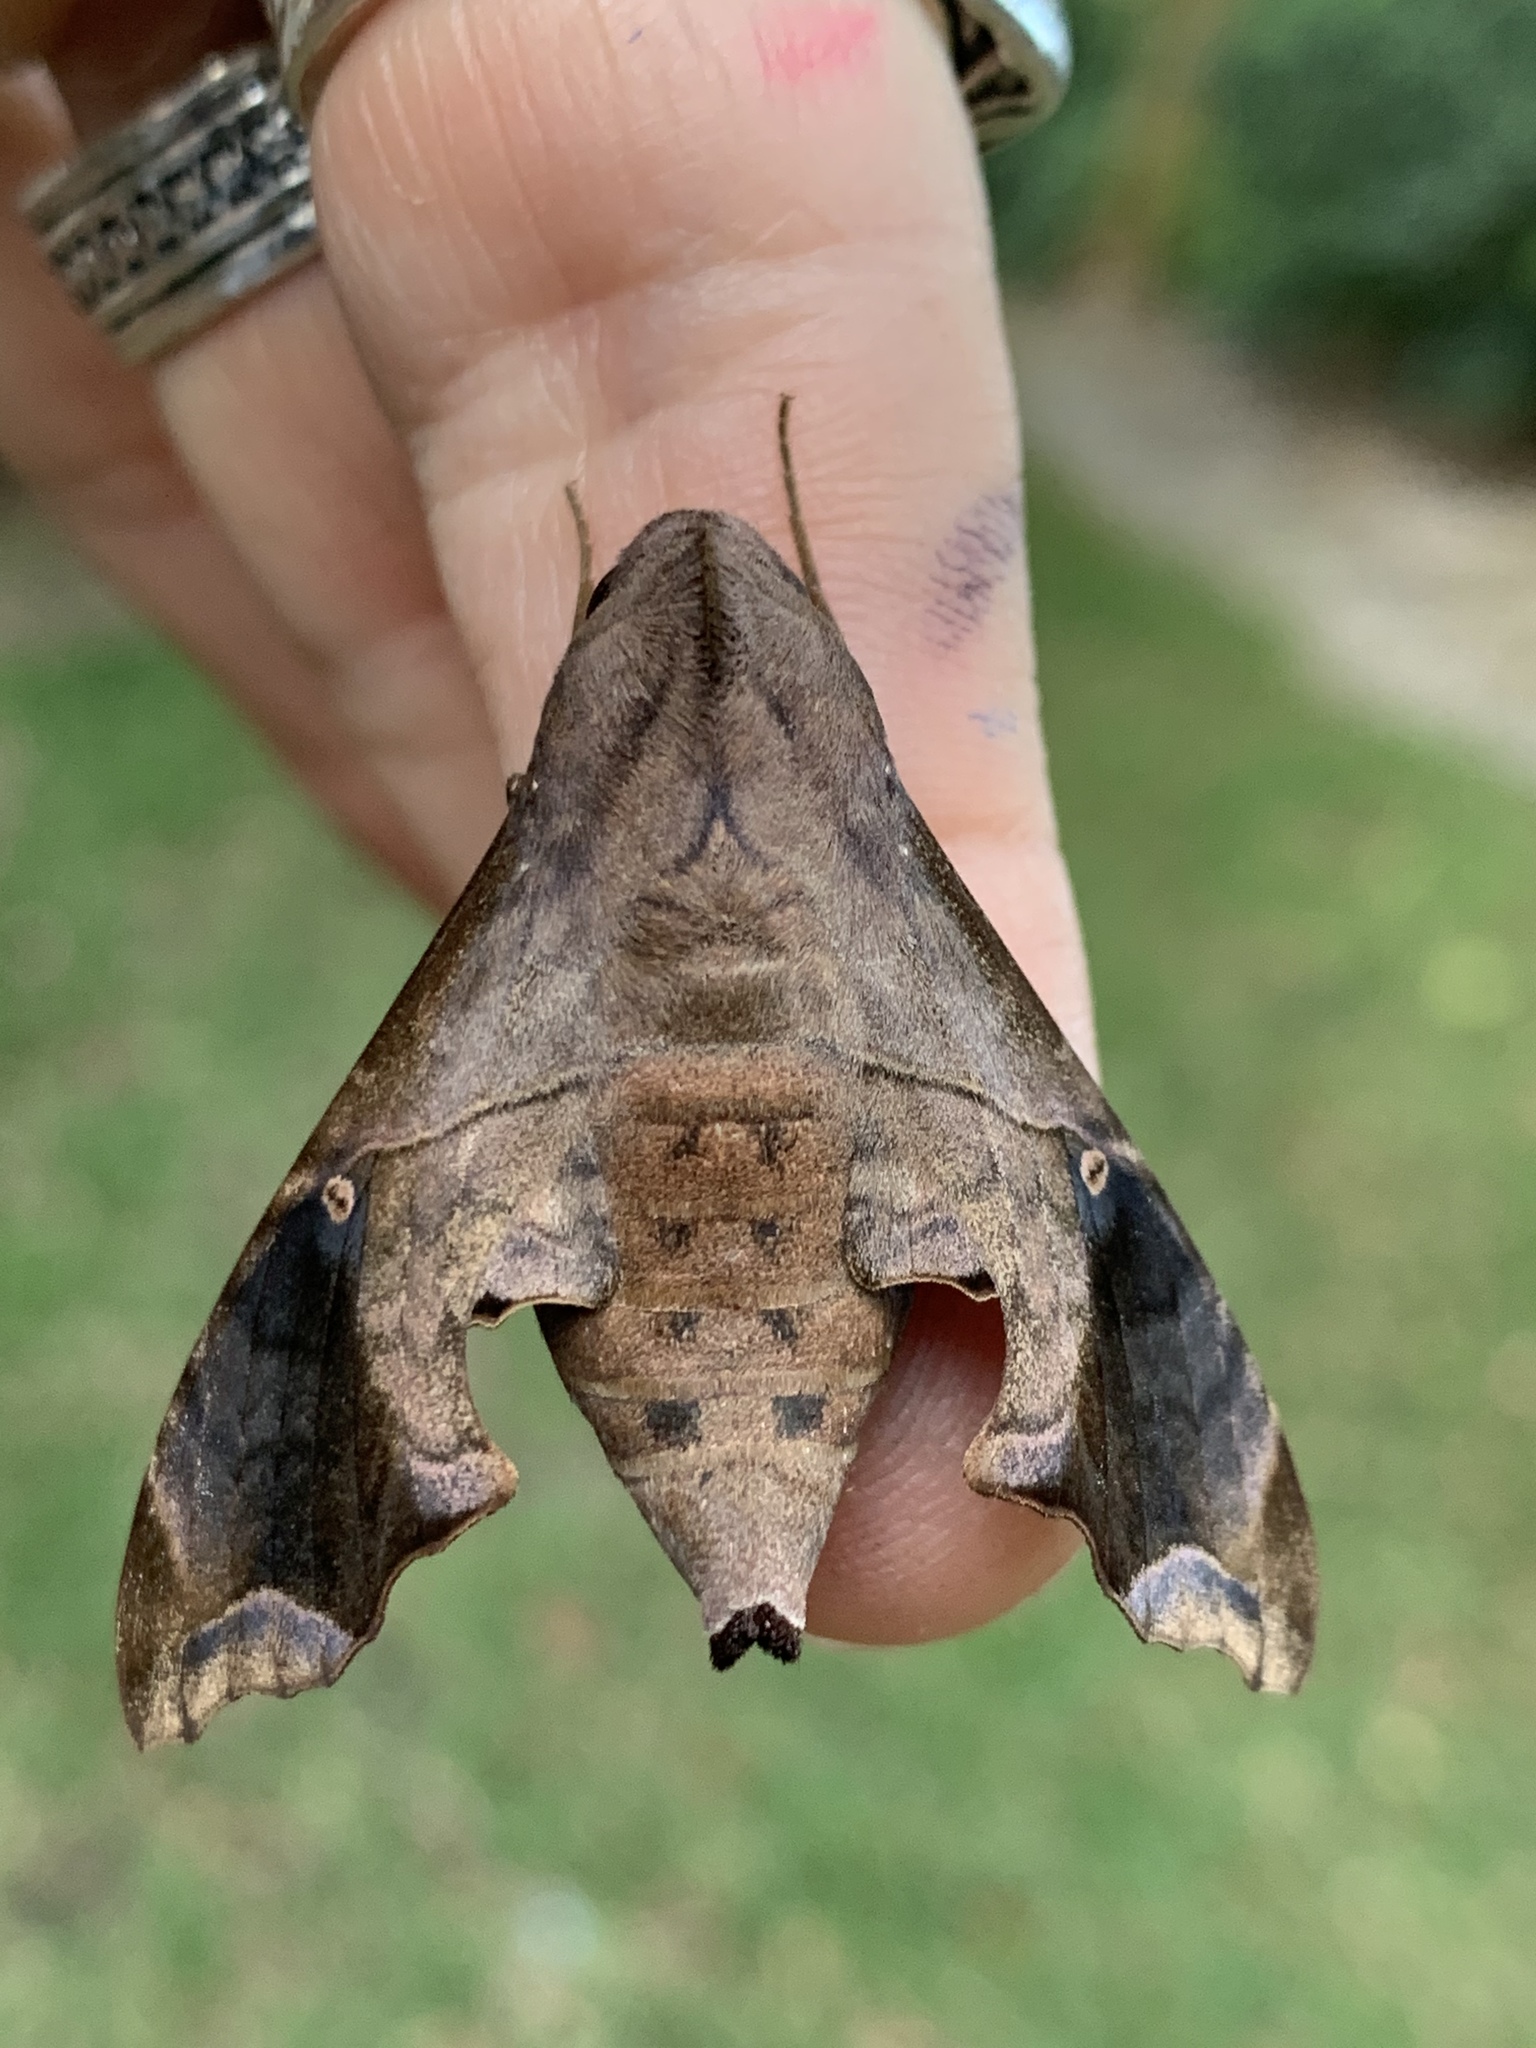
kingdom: Animalia
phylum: Arthropoda
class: Insecta
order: Lepidoptera
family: Sphingidae
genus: Enyo
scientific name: Enyo lugubris
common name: Mournful sphinx
